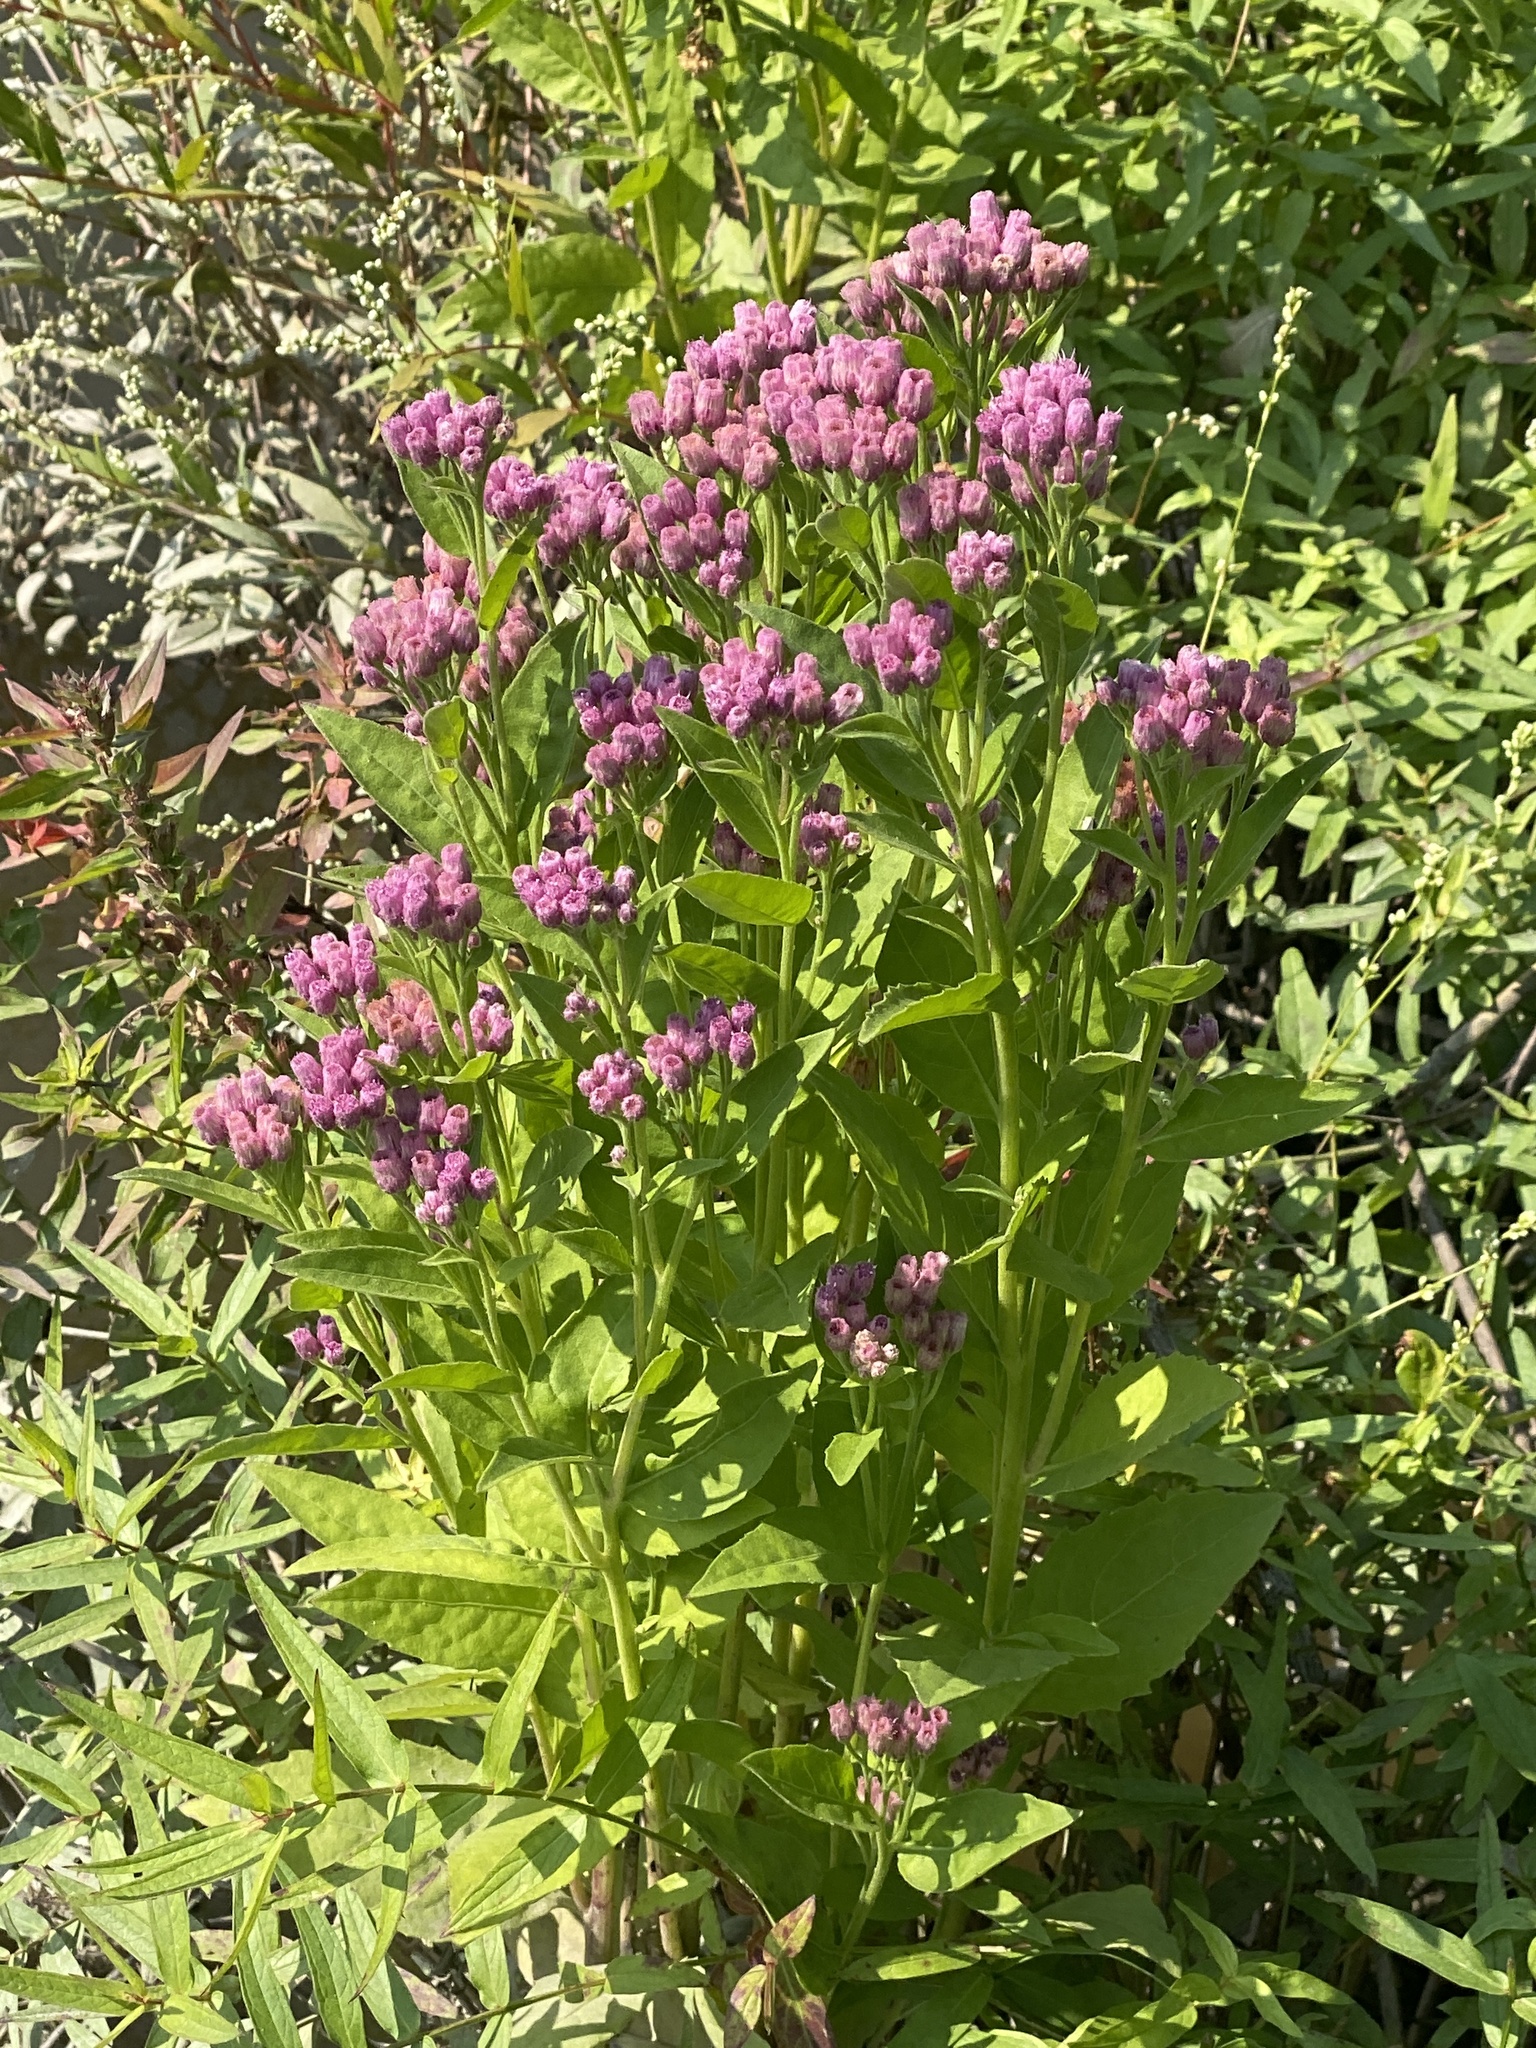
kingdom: Plantae
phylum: Tracheophyta
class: Magnoliopsida
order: Asterales
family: Asteraceae
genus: Pluchea
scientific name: Pluchea odorata
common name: Saltmarsh fleabane
